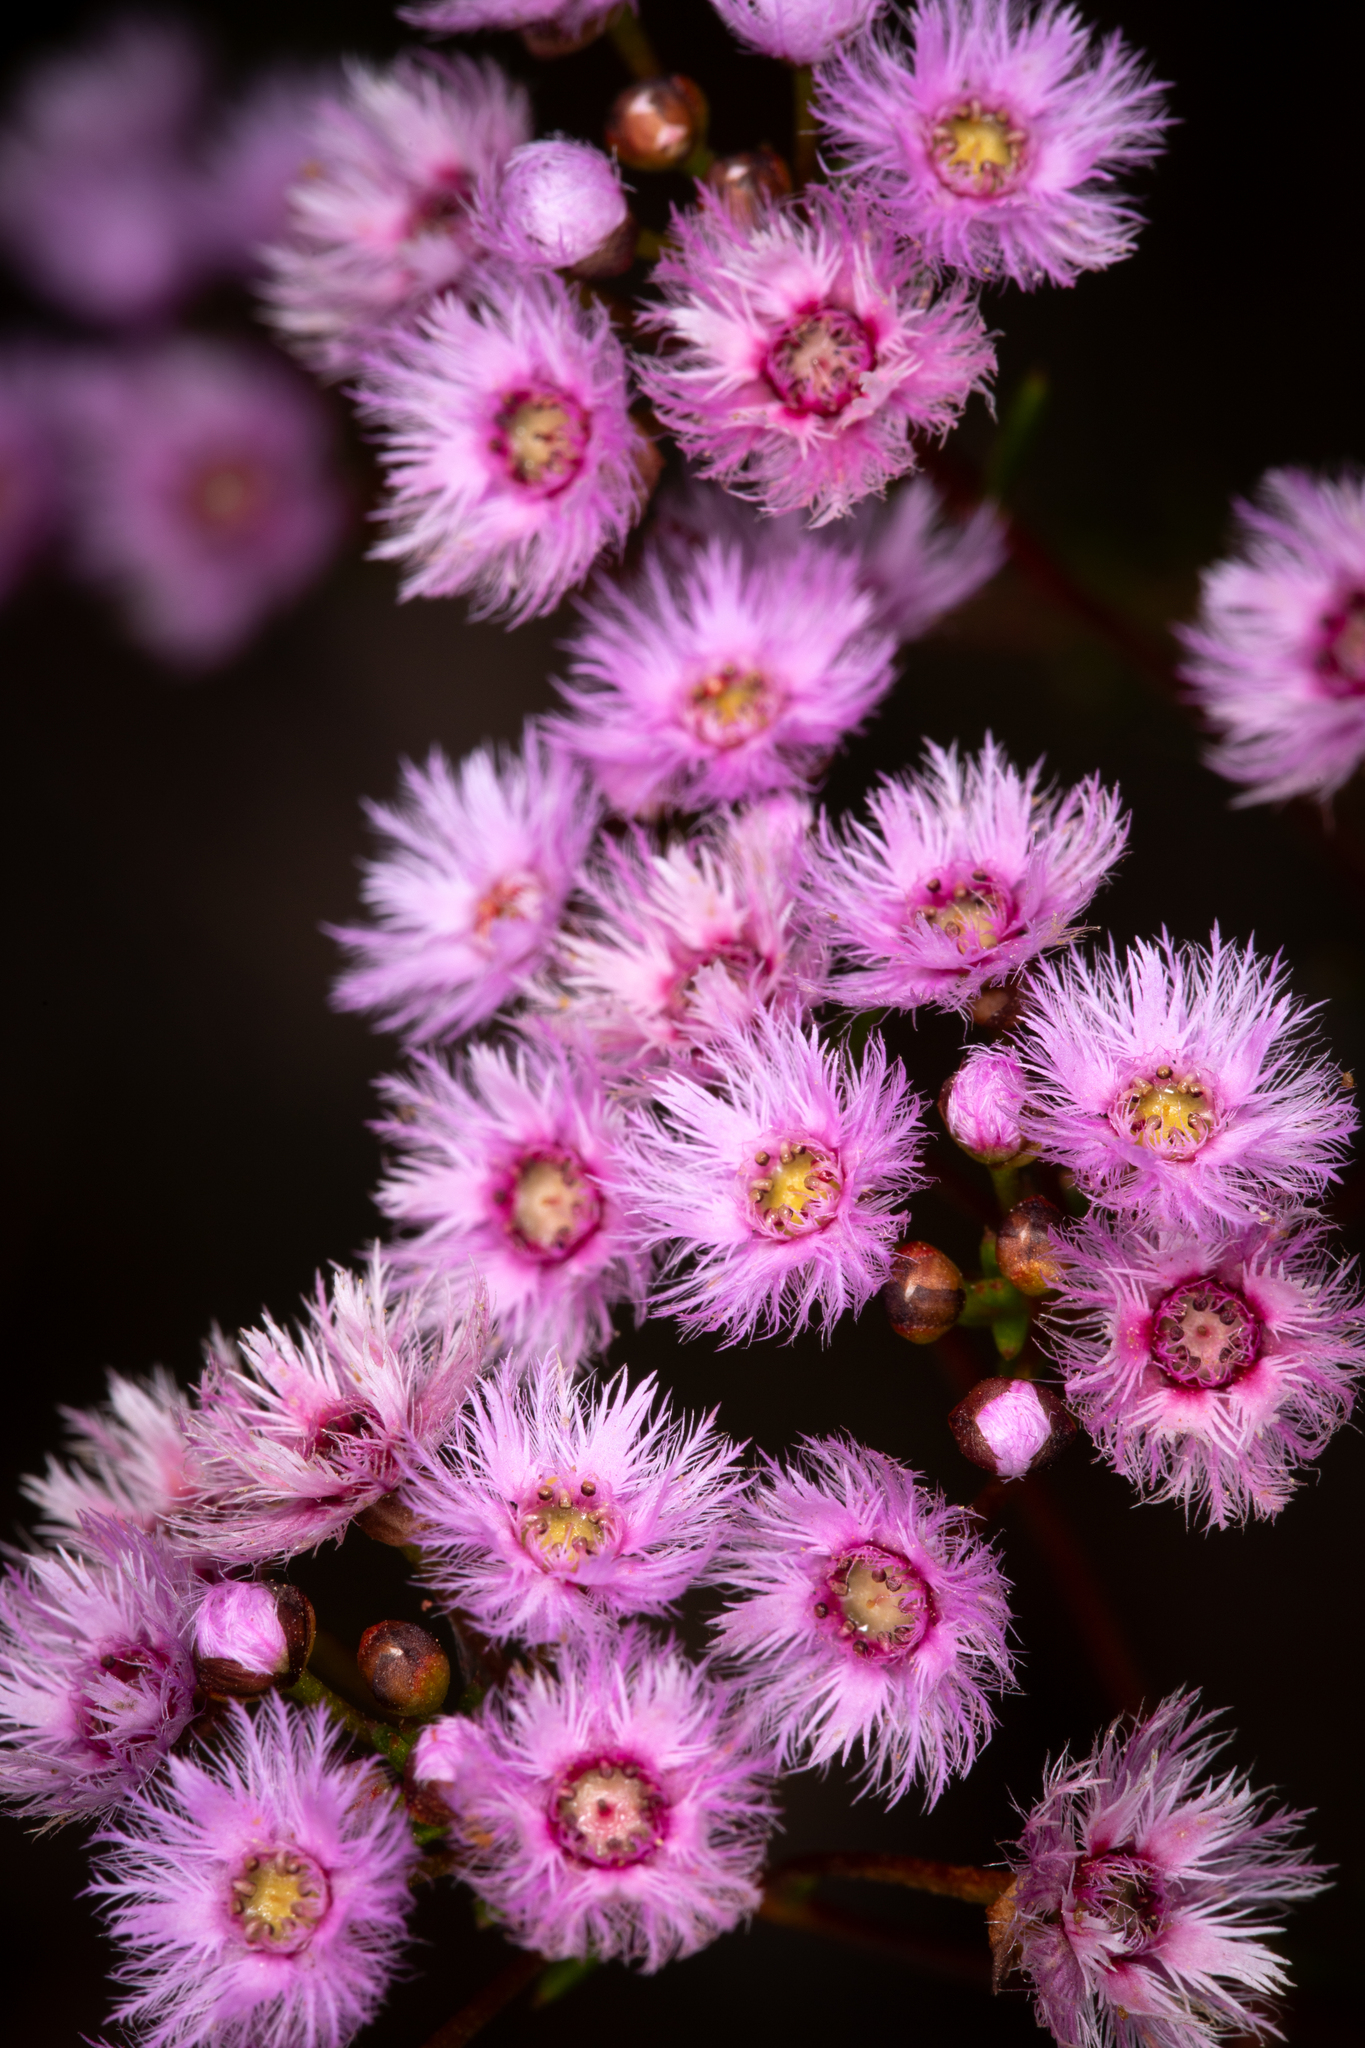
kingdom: Plantae
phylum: Tracheophyta
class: Magnoliopsida
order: Myrtales
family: Myrtaceae
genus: Verticordia
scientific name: Verticordia fimbrilepis
